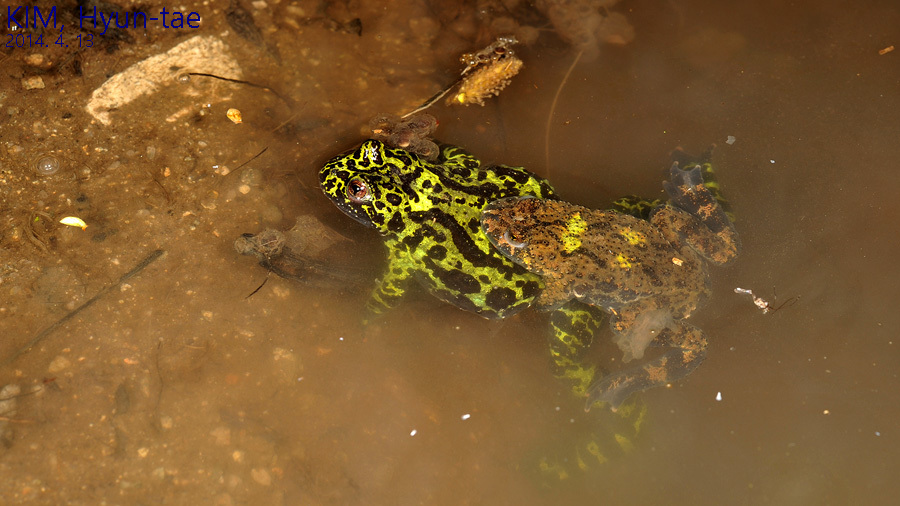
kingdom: Animalia
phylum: Chordata
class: Amphibia
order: Anura
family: Bombinatoridae
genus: Bombina
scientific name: Bombina orientalis
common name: Oriental firebelly toad
